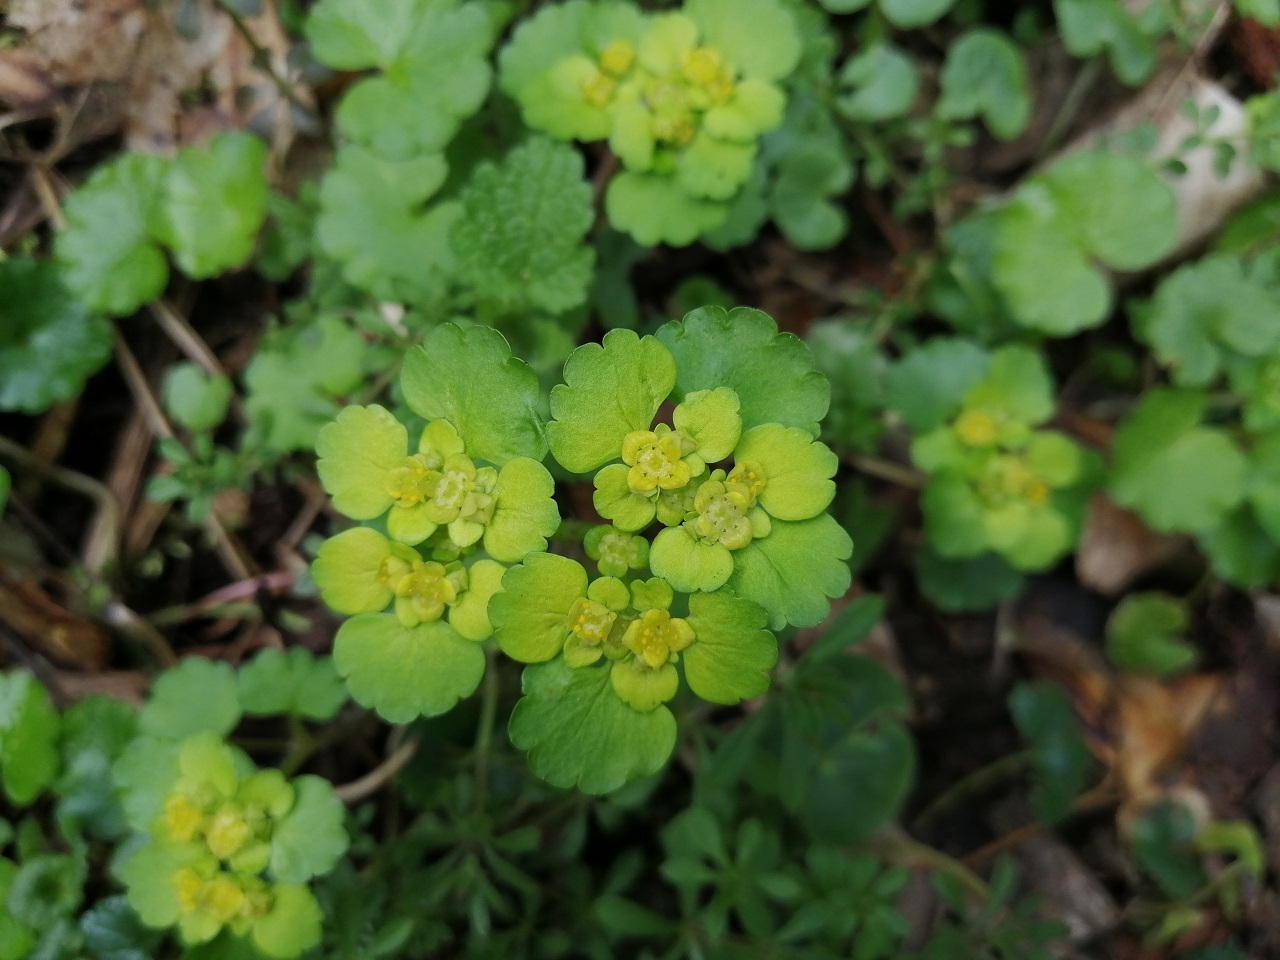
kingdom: Plantae
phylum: Tracheophyta
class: Magnoliopsida
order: Saxifragales
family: Saxifragaceae
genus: Chrysosplenium
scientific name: Chrysosplenium alternifolium
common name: Alternate-leaved golden-saxifrage
